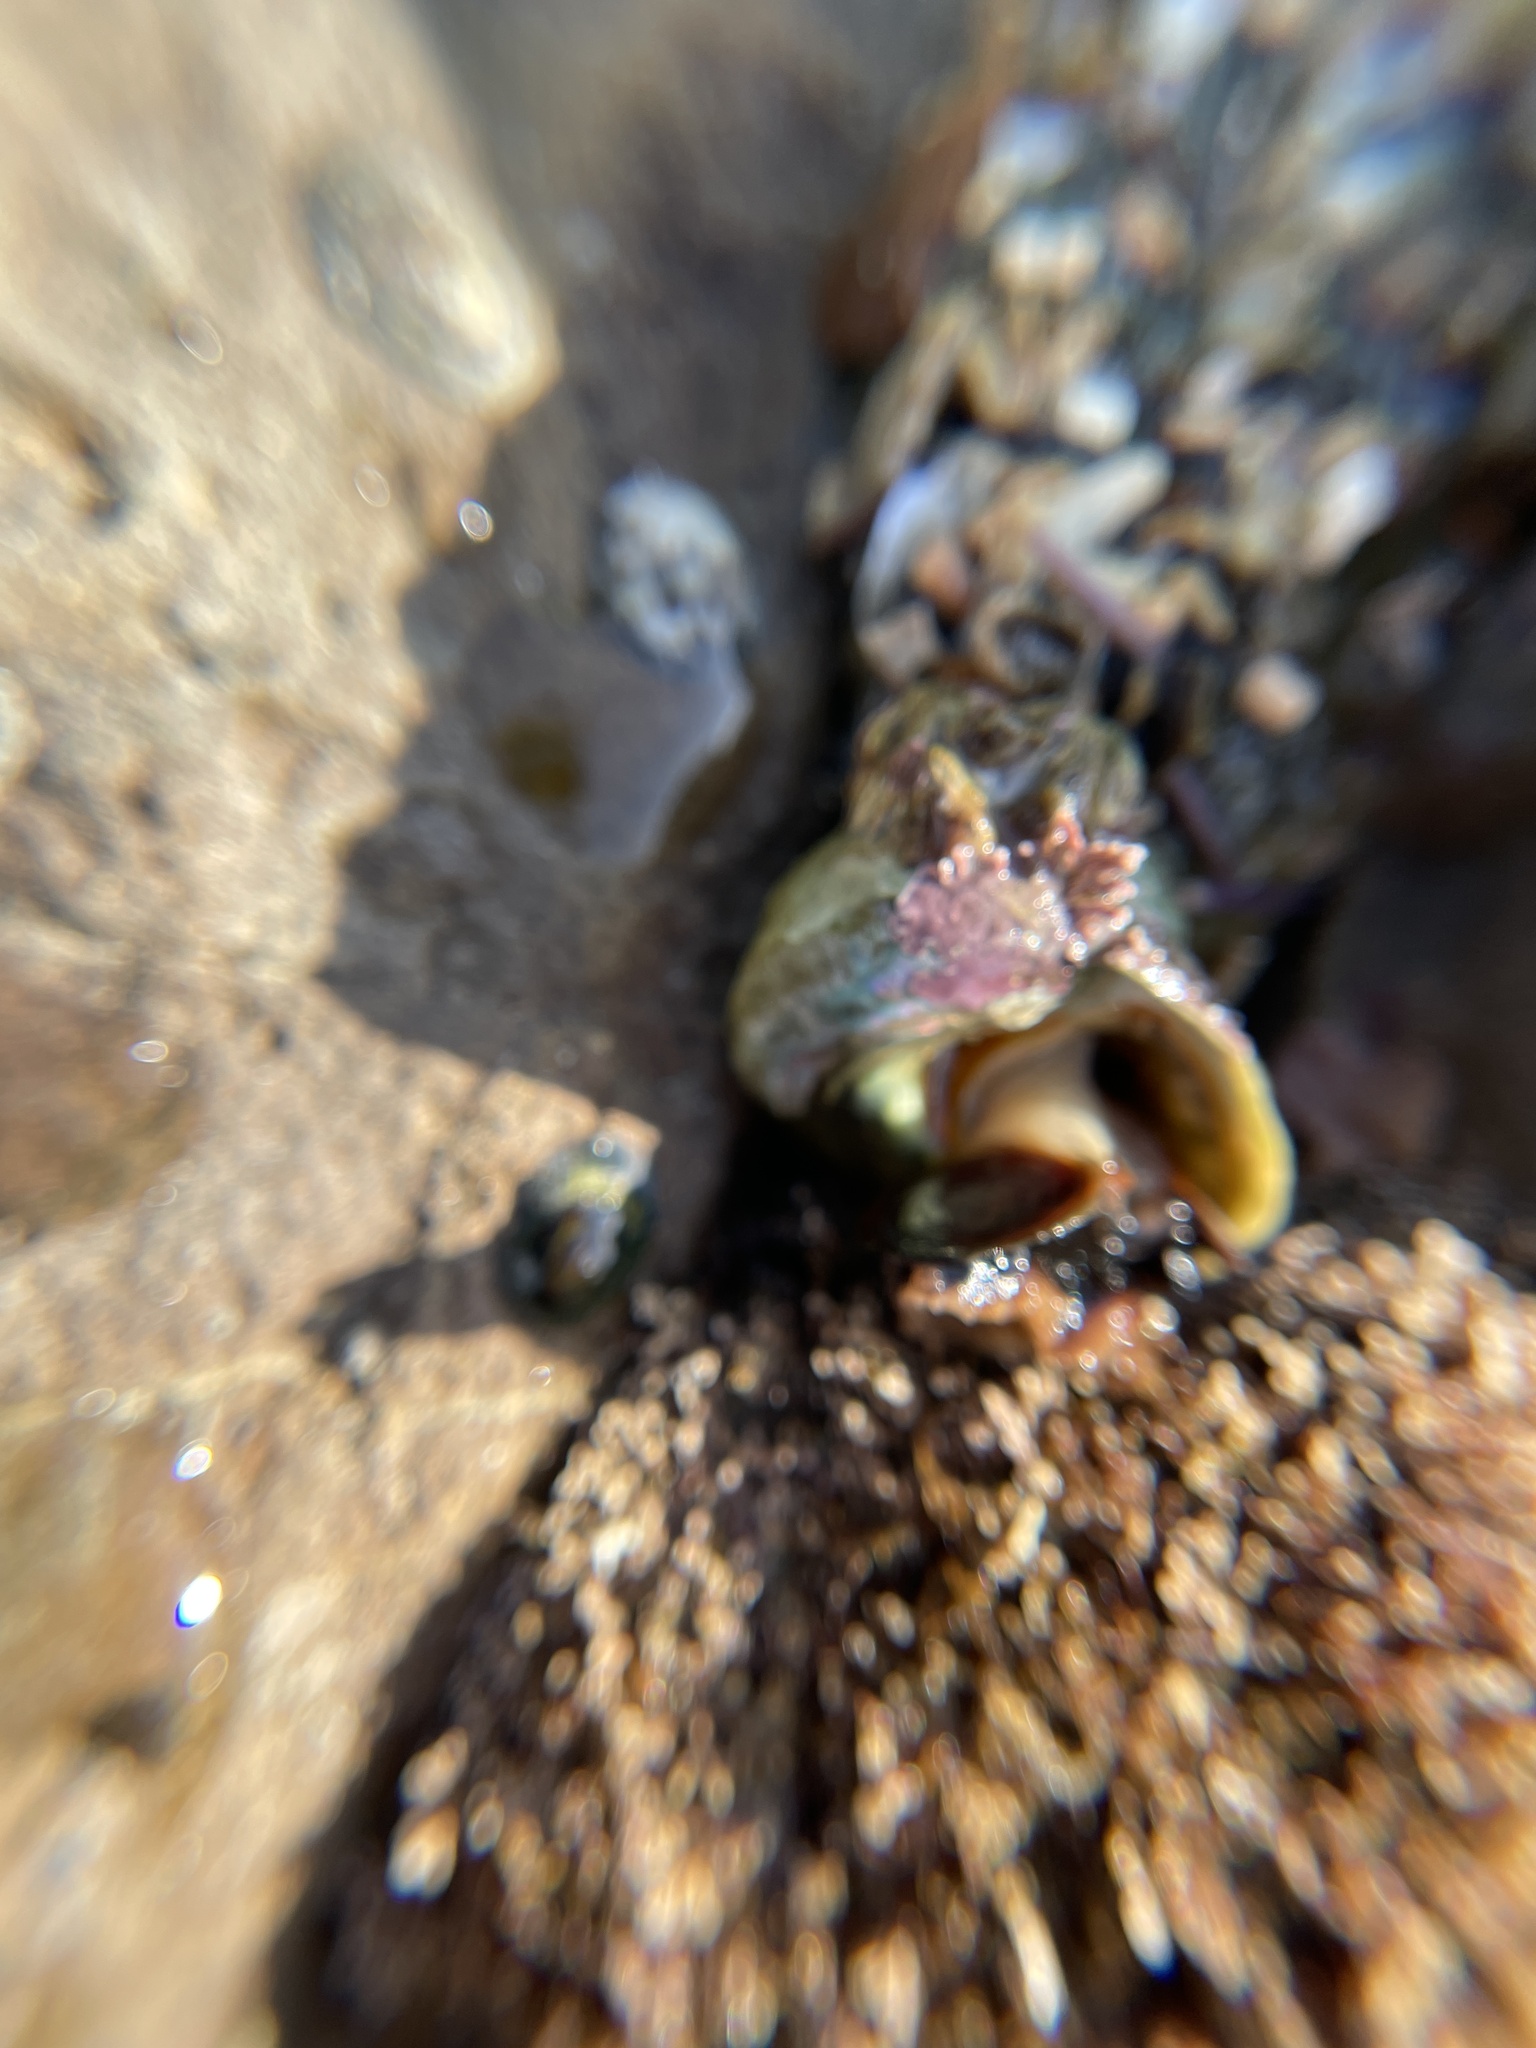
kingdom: Animalia
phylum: Mollusca
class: Gastropoda
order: Trochida
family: Tegulidae
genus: Tegula
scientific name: Tegula aureotincta
